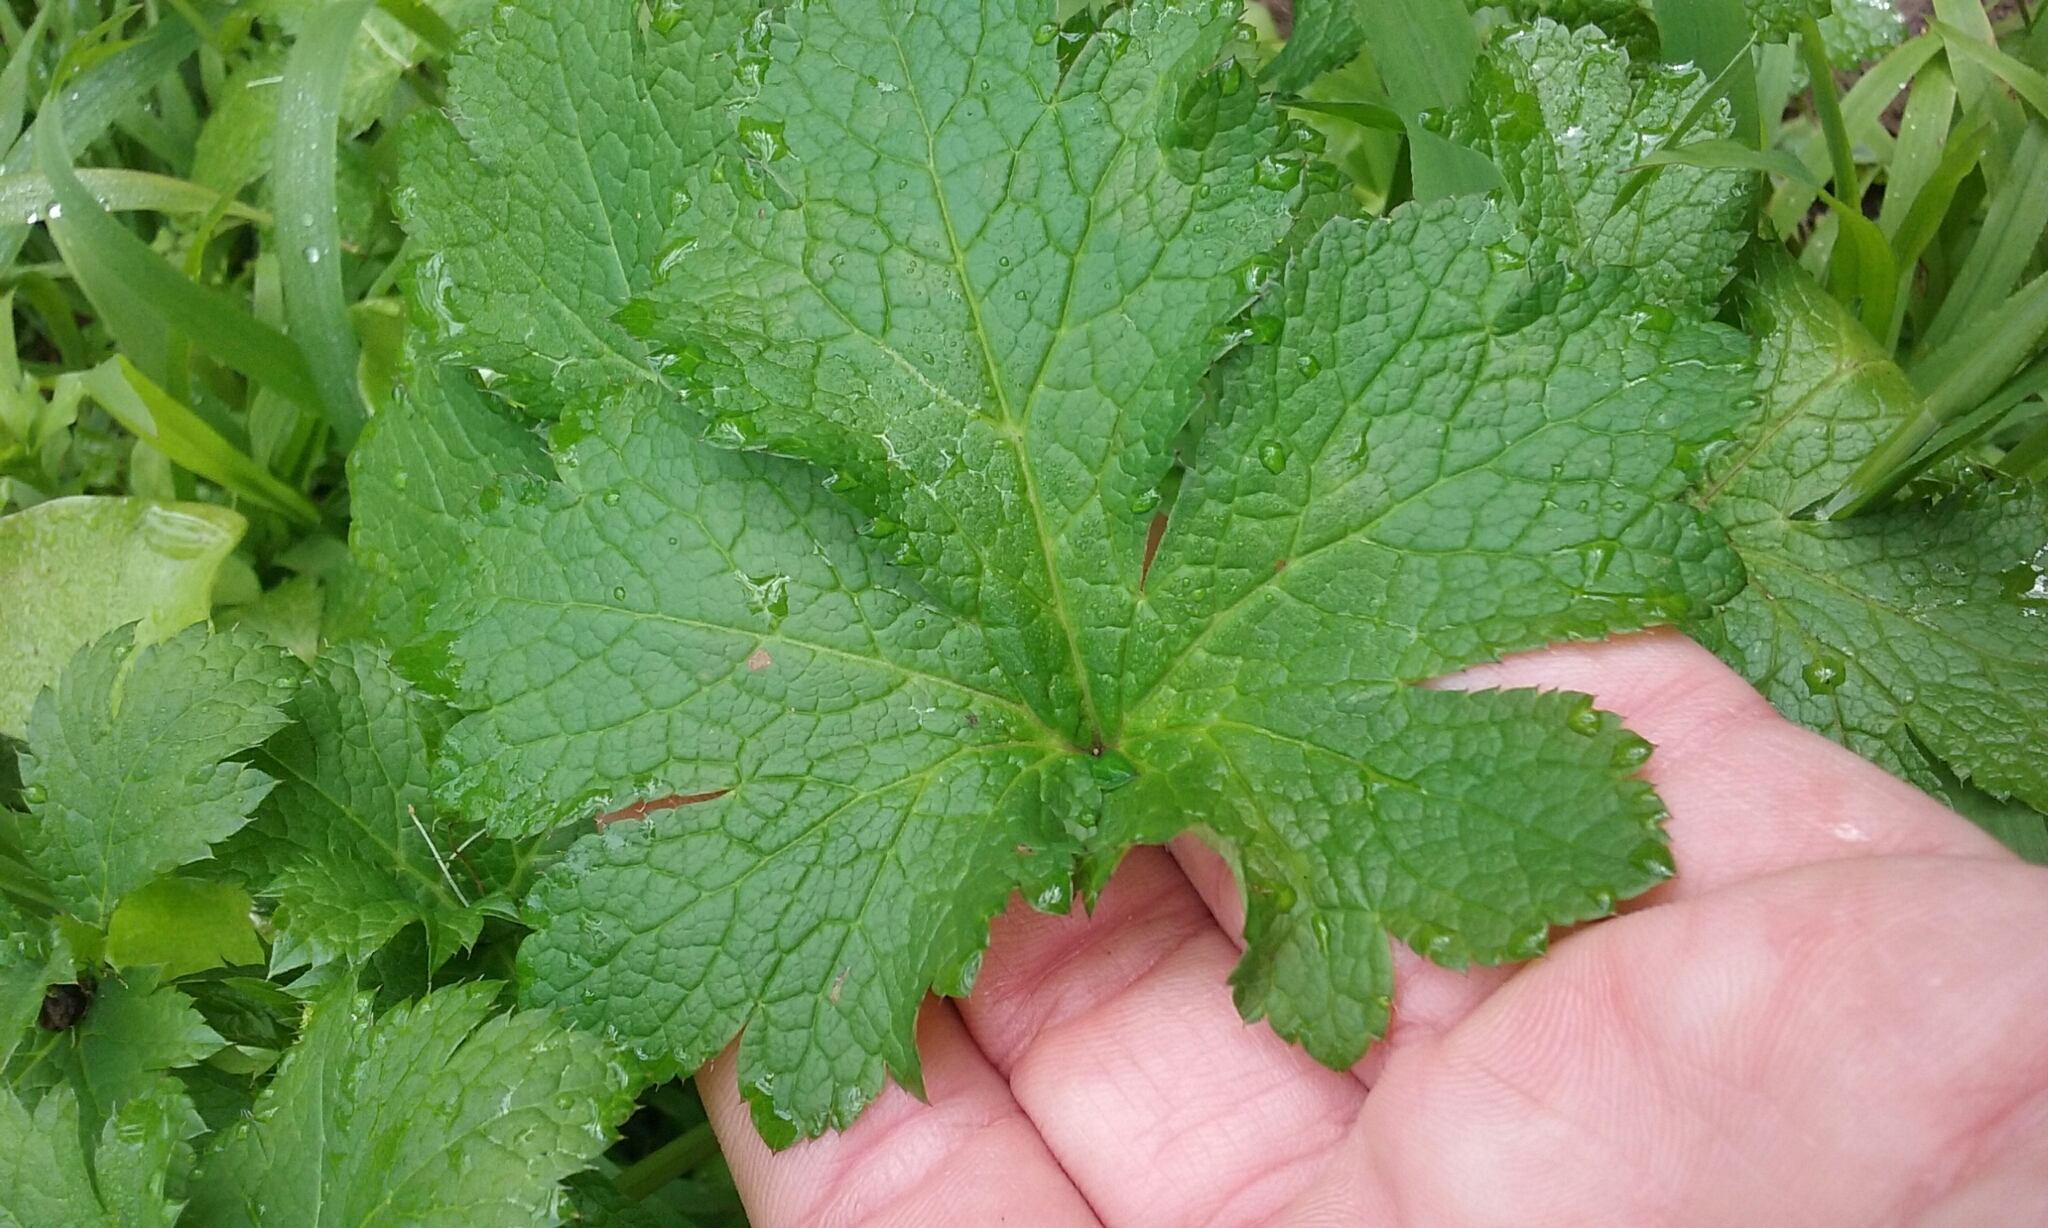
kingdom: Plantae
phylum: Tracheophyta
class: Magnoliopsida
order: Apiales
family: Apiaceae
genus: Sanicula
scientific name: Sanicula crassicaulis
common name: Western snakeroot
